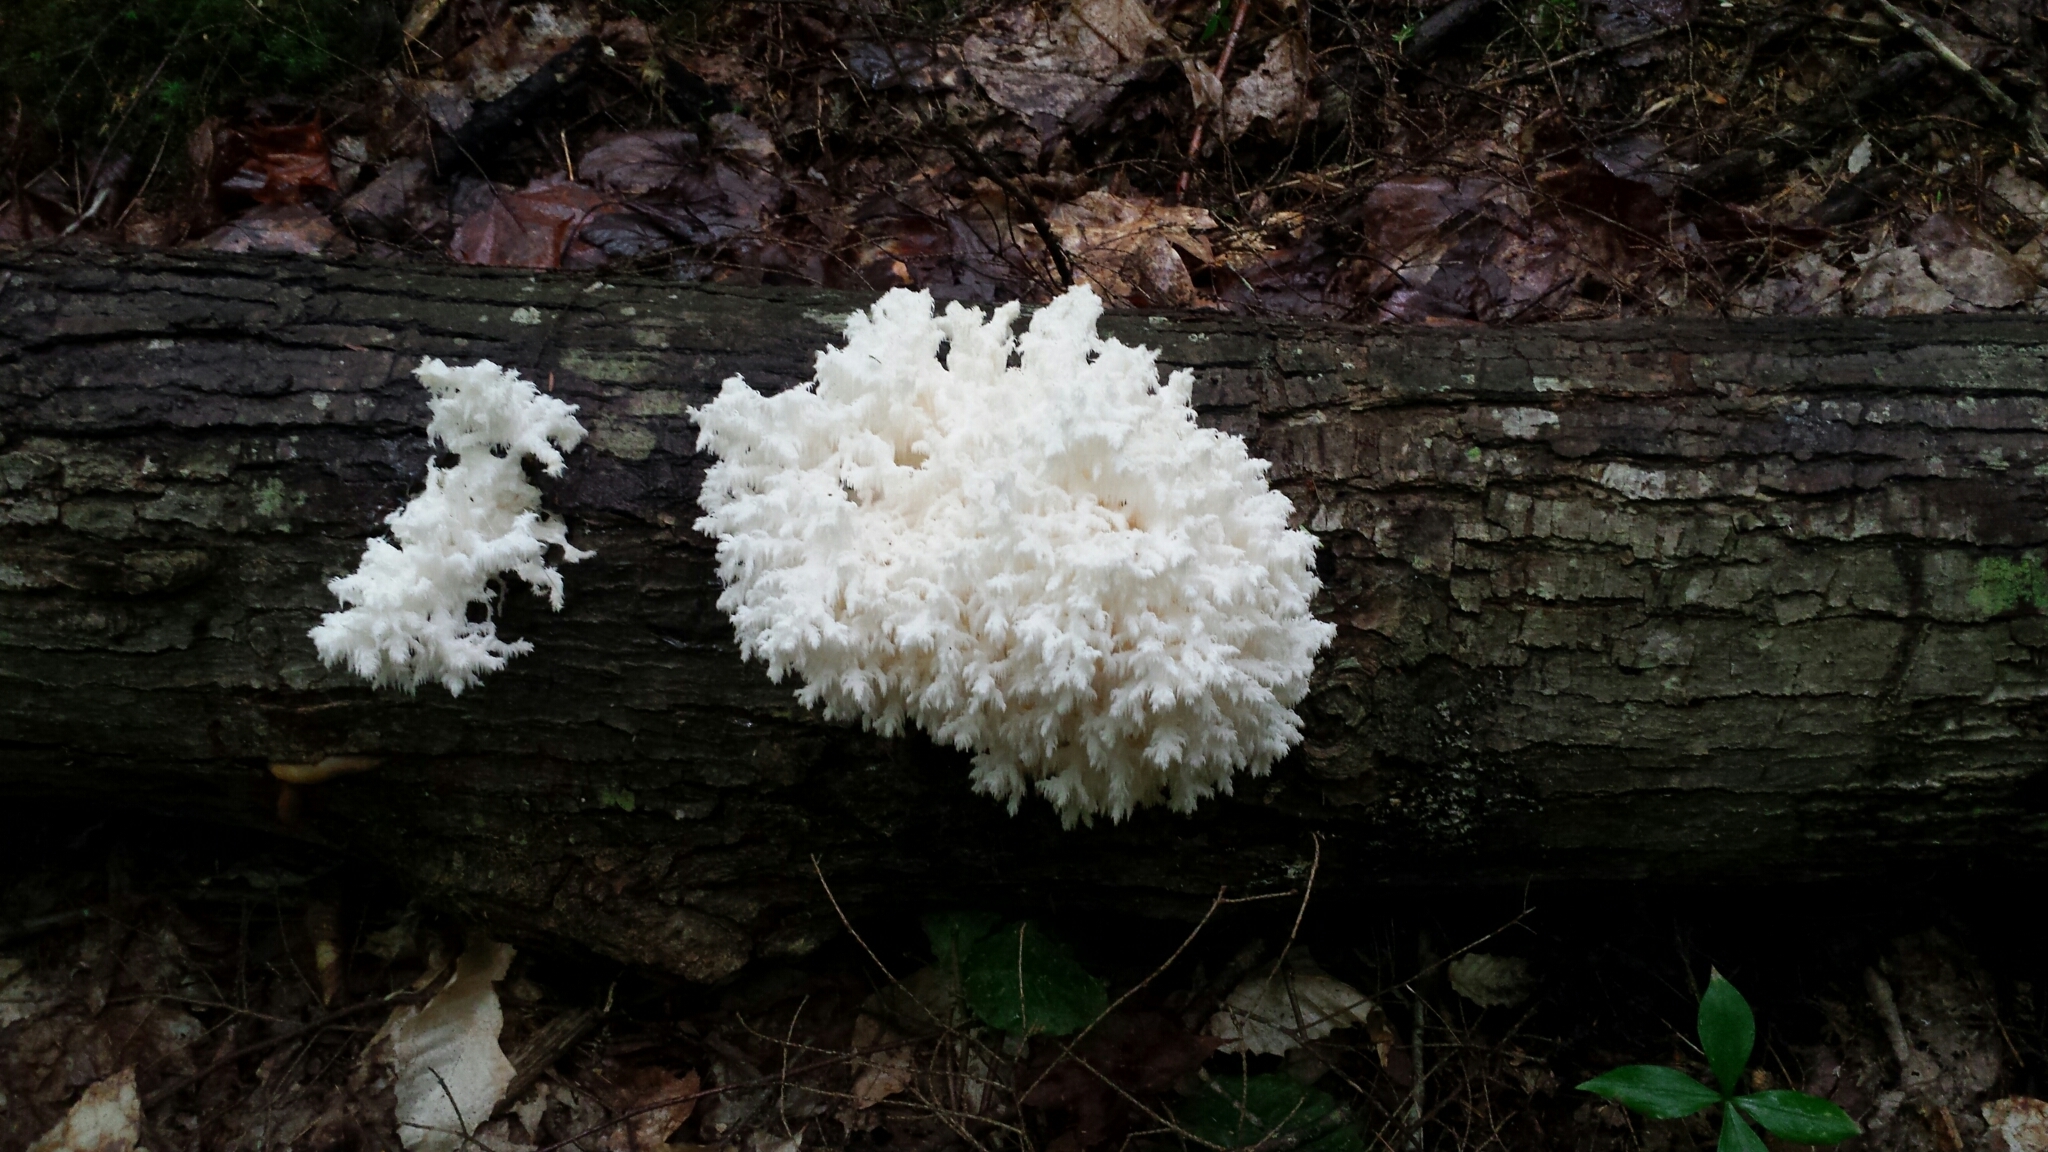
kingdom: Fungi
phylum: Basidiomycota
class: Agaricomycetes
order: Russulales
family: Hericiaceae
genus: Hericium
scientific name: Hericium coralloides
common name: Coral tooth
